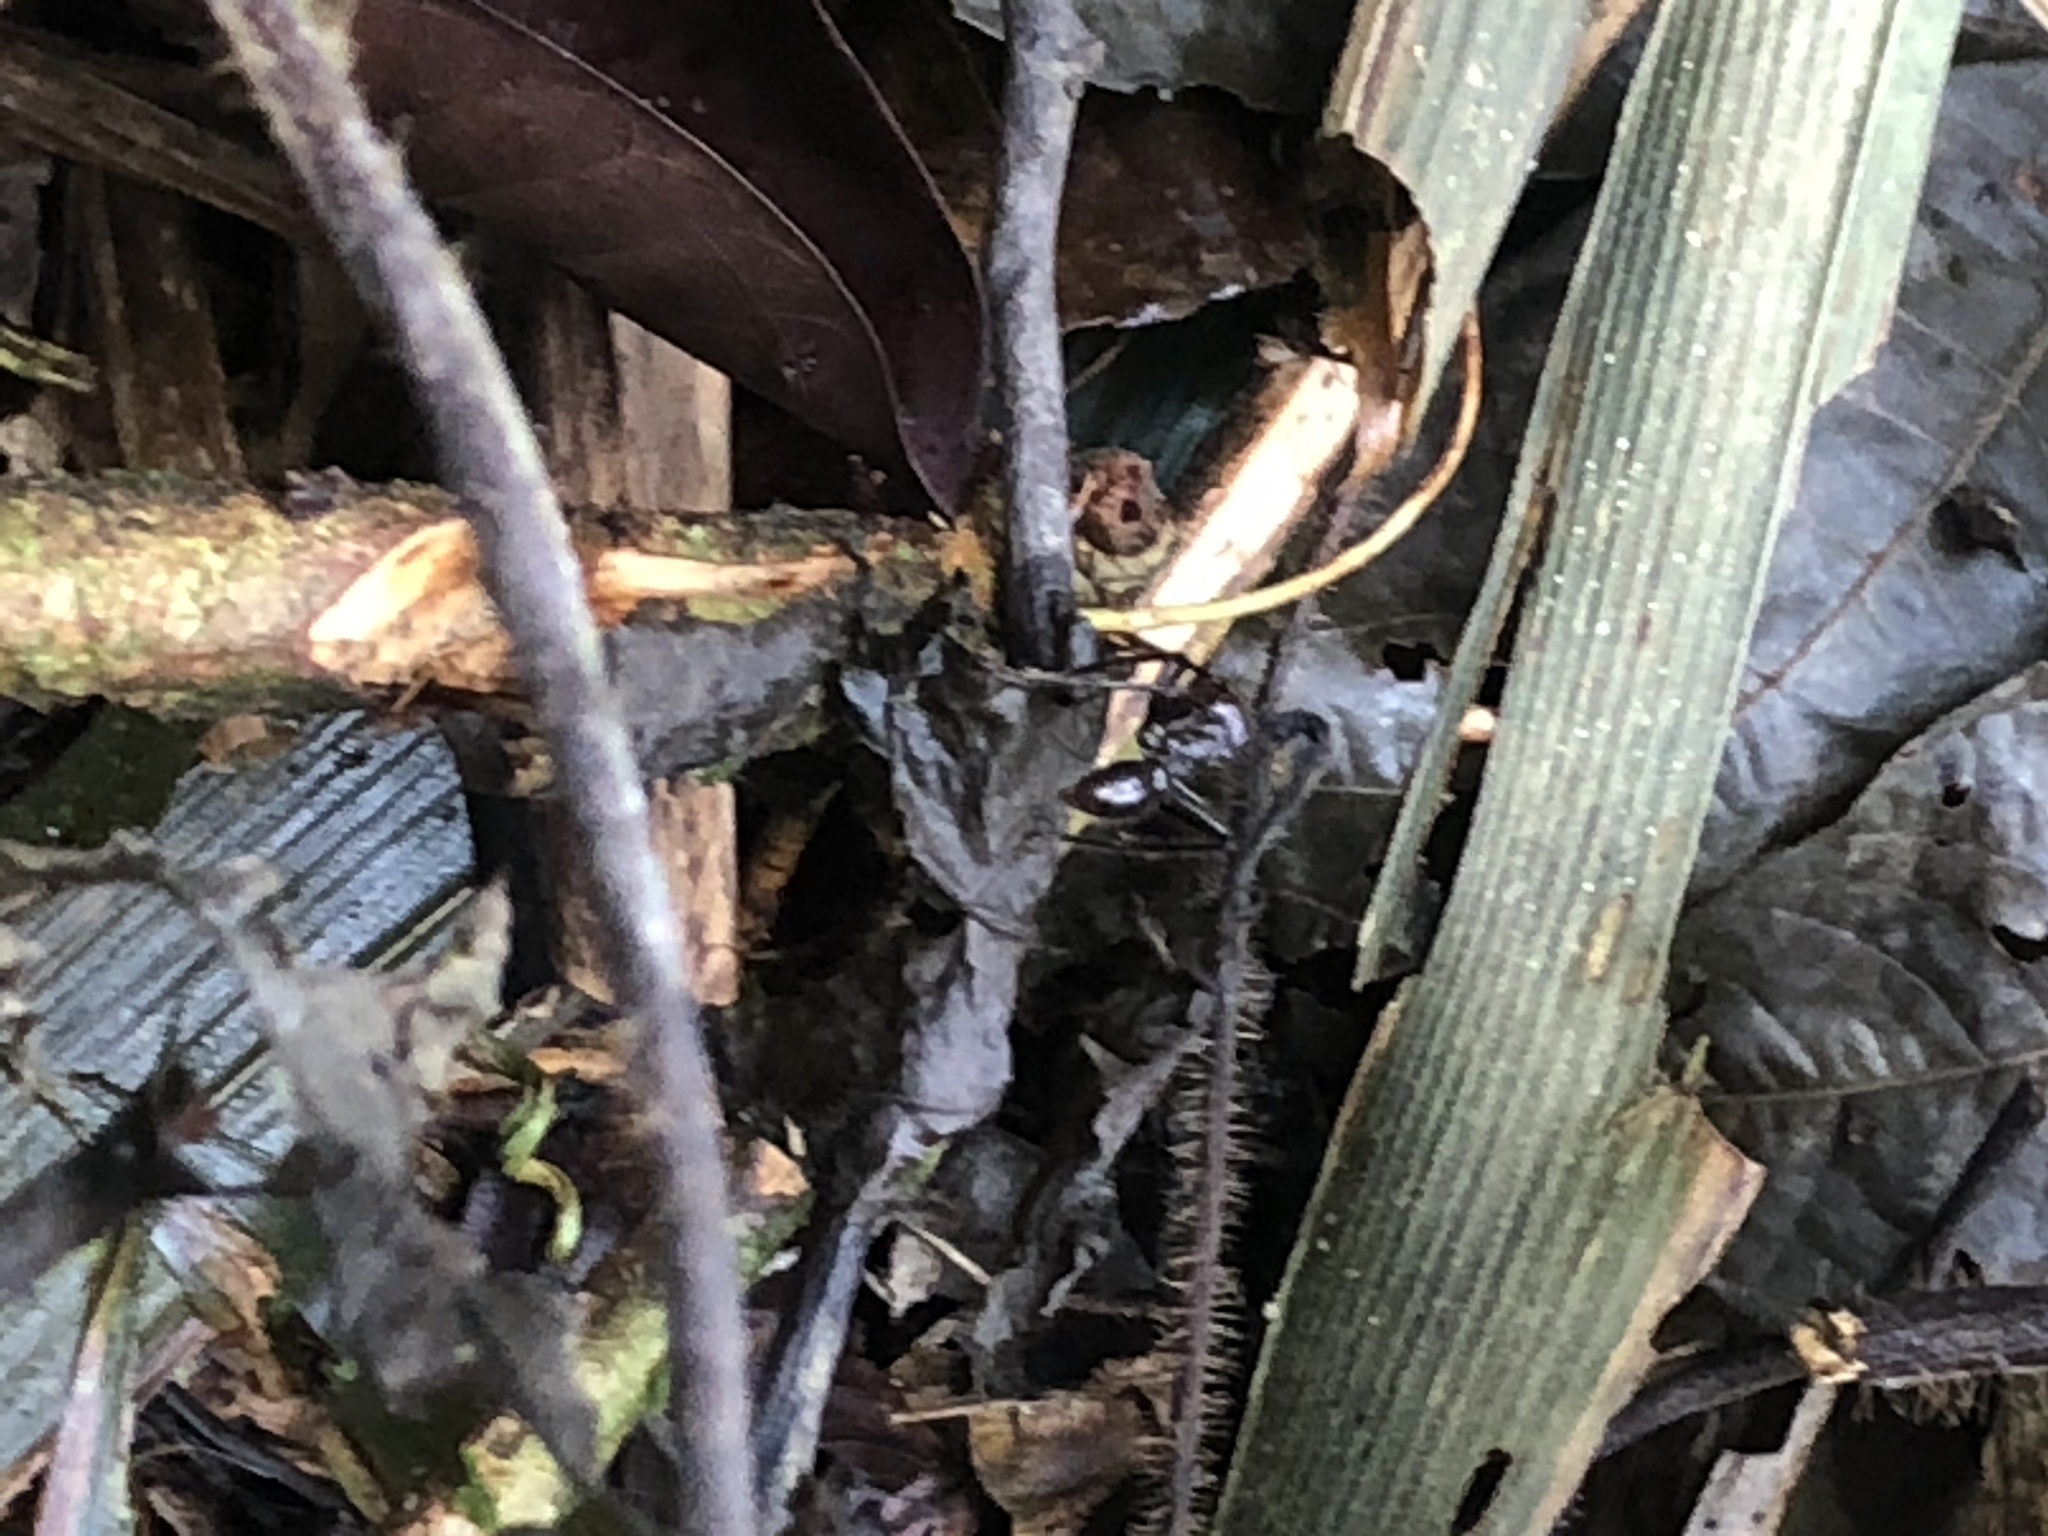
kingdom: Animalia
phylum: Arthropoda
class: Insecta
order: Hymenoptera
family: Formicidae
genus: Paraponera
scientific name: Paraponera clavata
